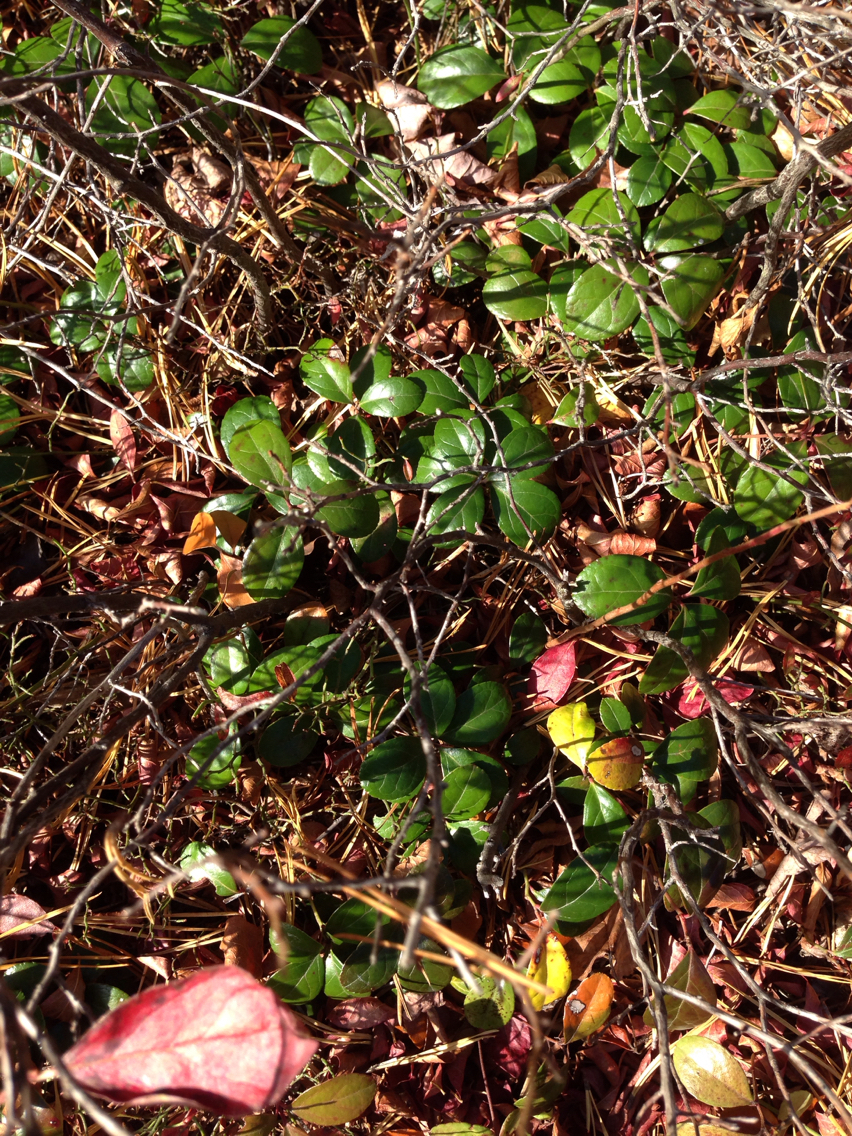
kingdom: Plantae
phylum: Tracheophyta
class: Magnoliopsida
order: Ericales
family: Ericaceae
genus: Gaultheria
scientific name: Gaultheria procumbens
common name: Checkerberry
